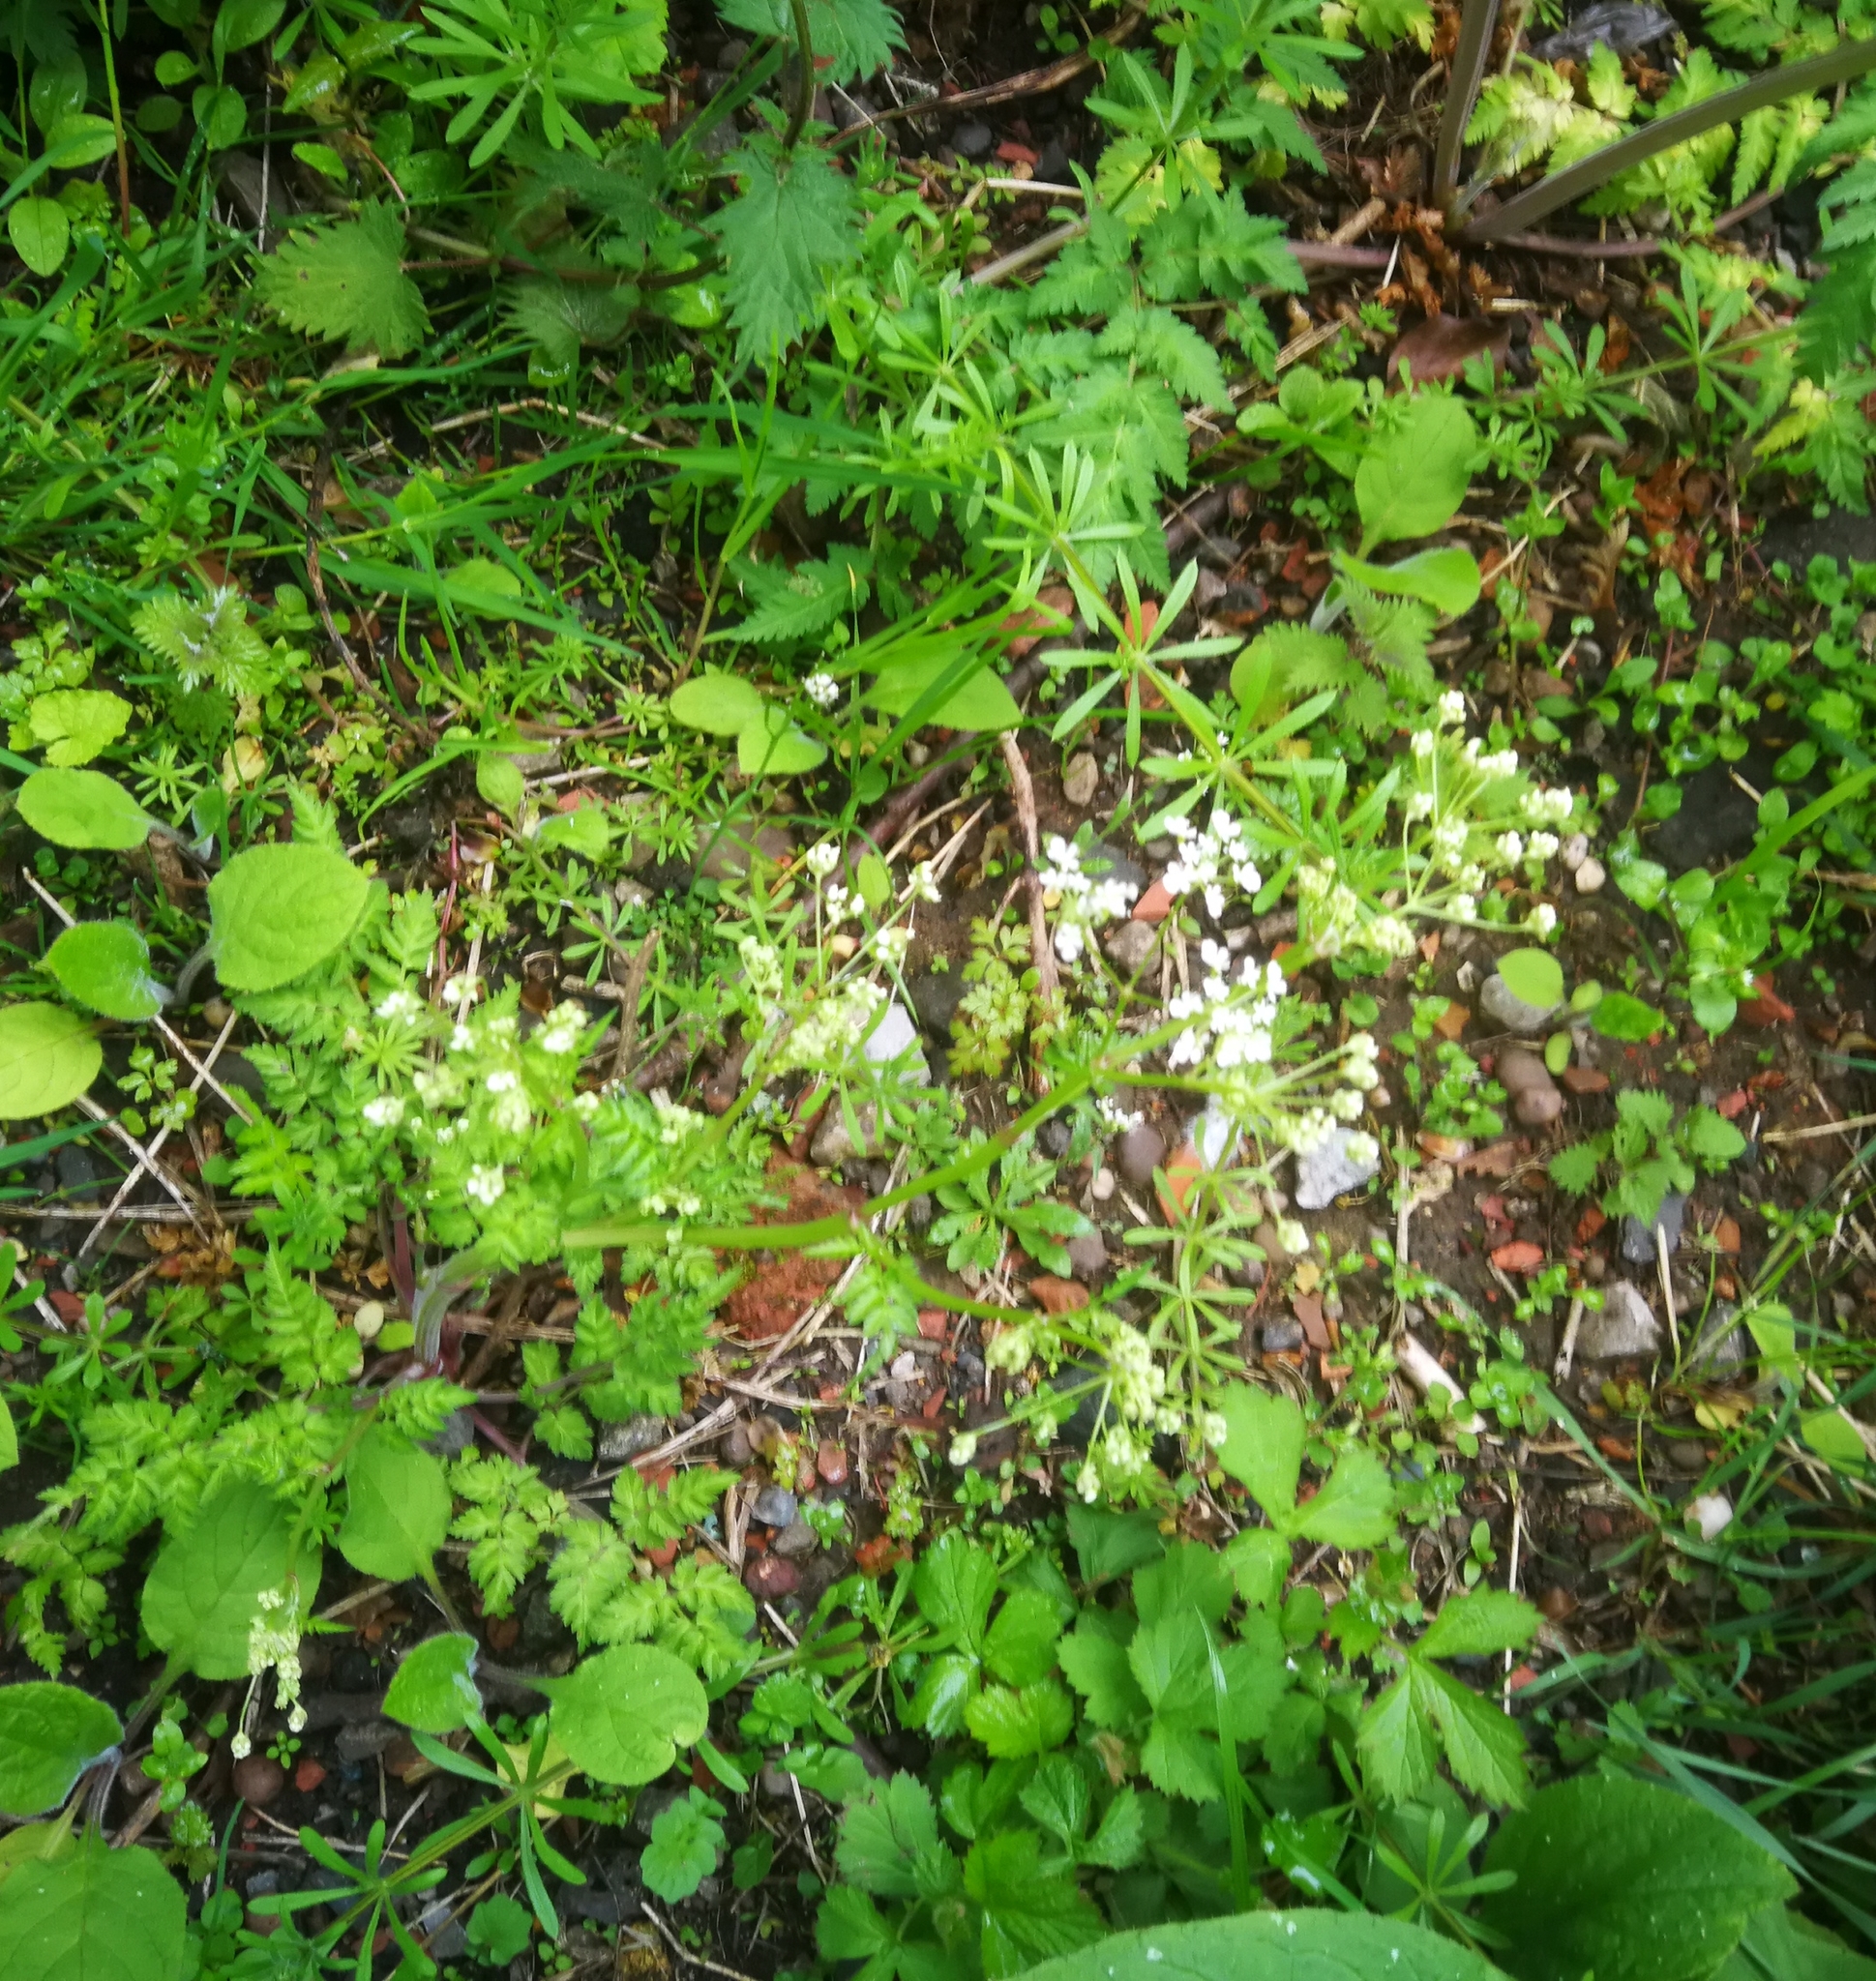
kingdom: Plantae
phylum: Tracheophyta
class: Magnoliopsida
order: Apiales
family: Apiaceae
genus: Anthriscus
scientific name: Anthriscus sylvestris
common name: Cow parsley
